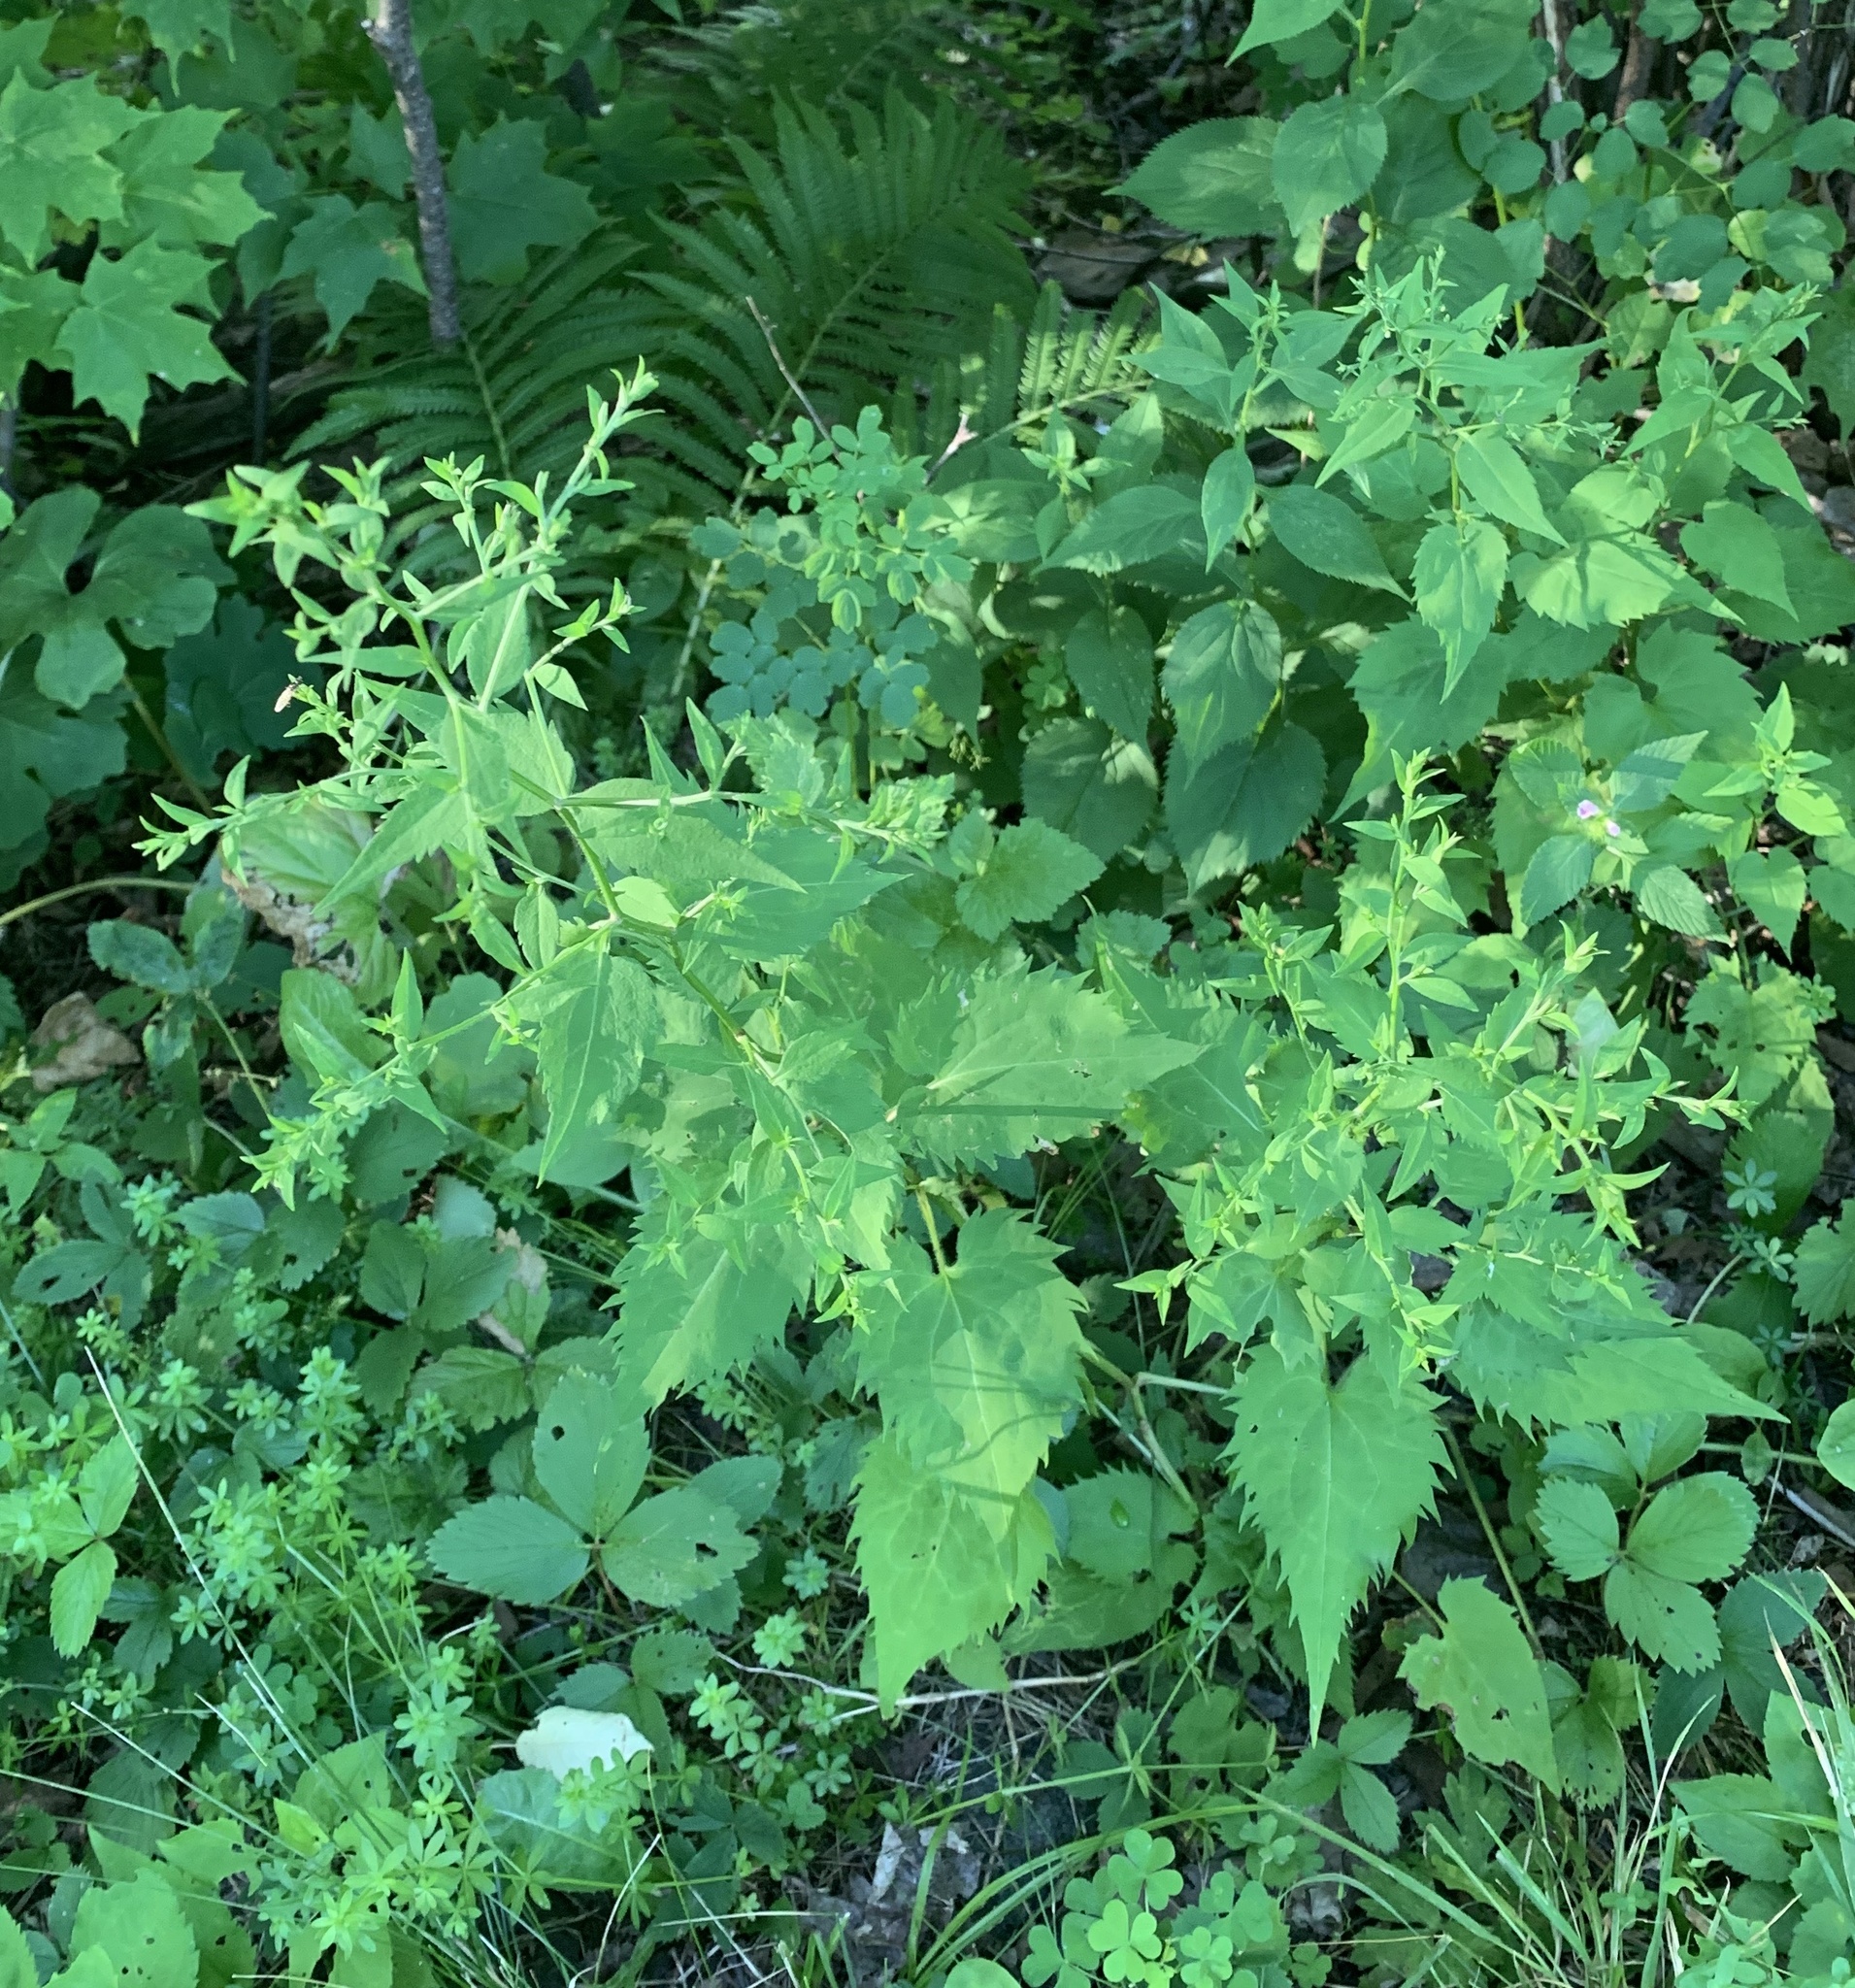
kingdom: Plantae
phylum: Tracheophyta
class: Magnoliopsida
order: Asterales
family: Asteraceae
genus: Symphyotrichum
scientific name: Symphyotrichum cordifolium
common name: Beeweed
